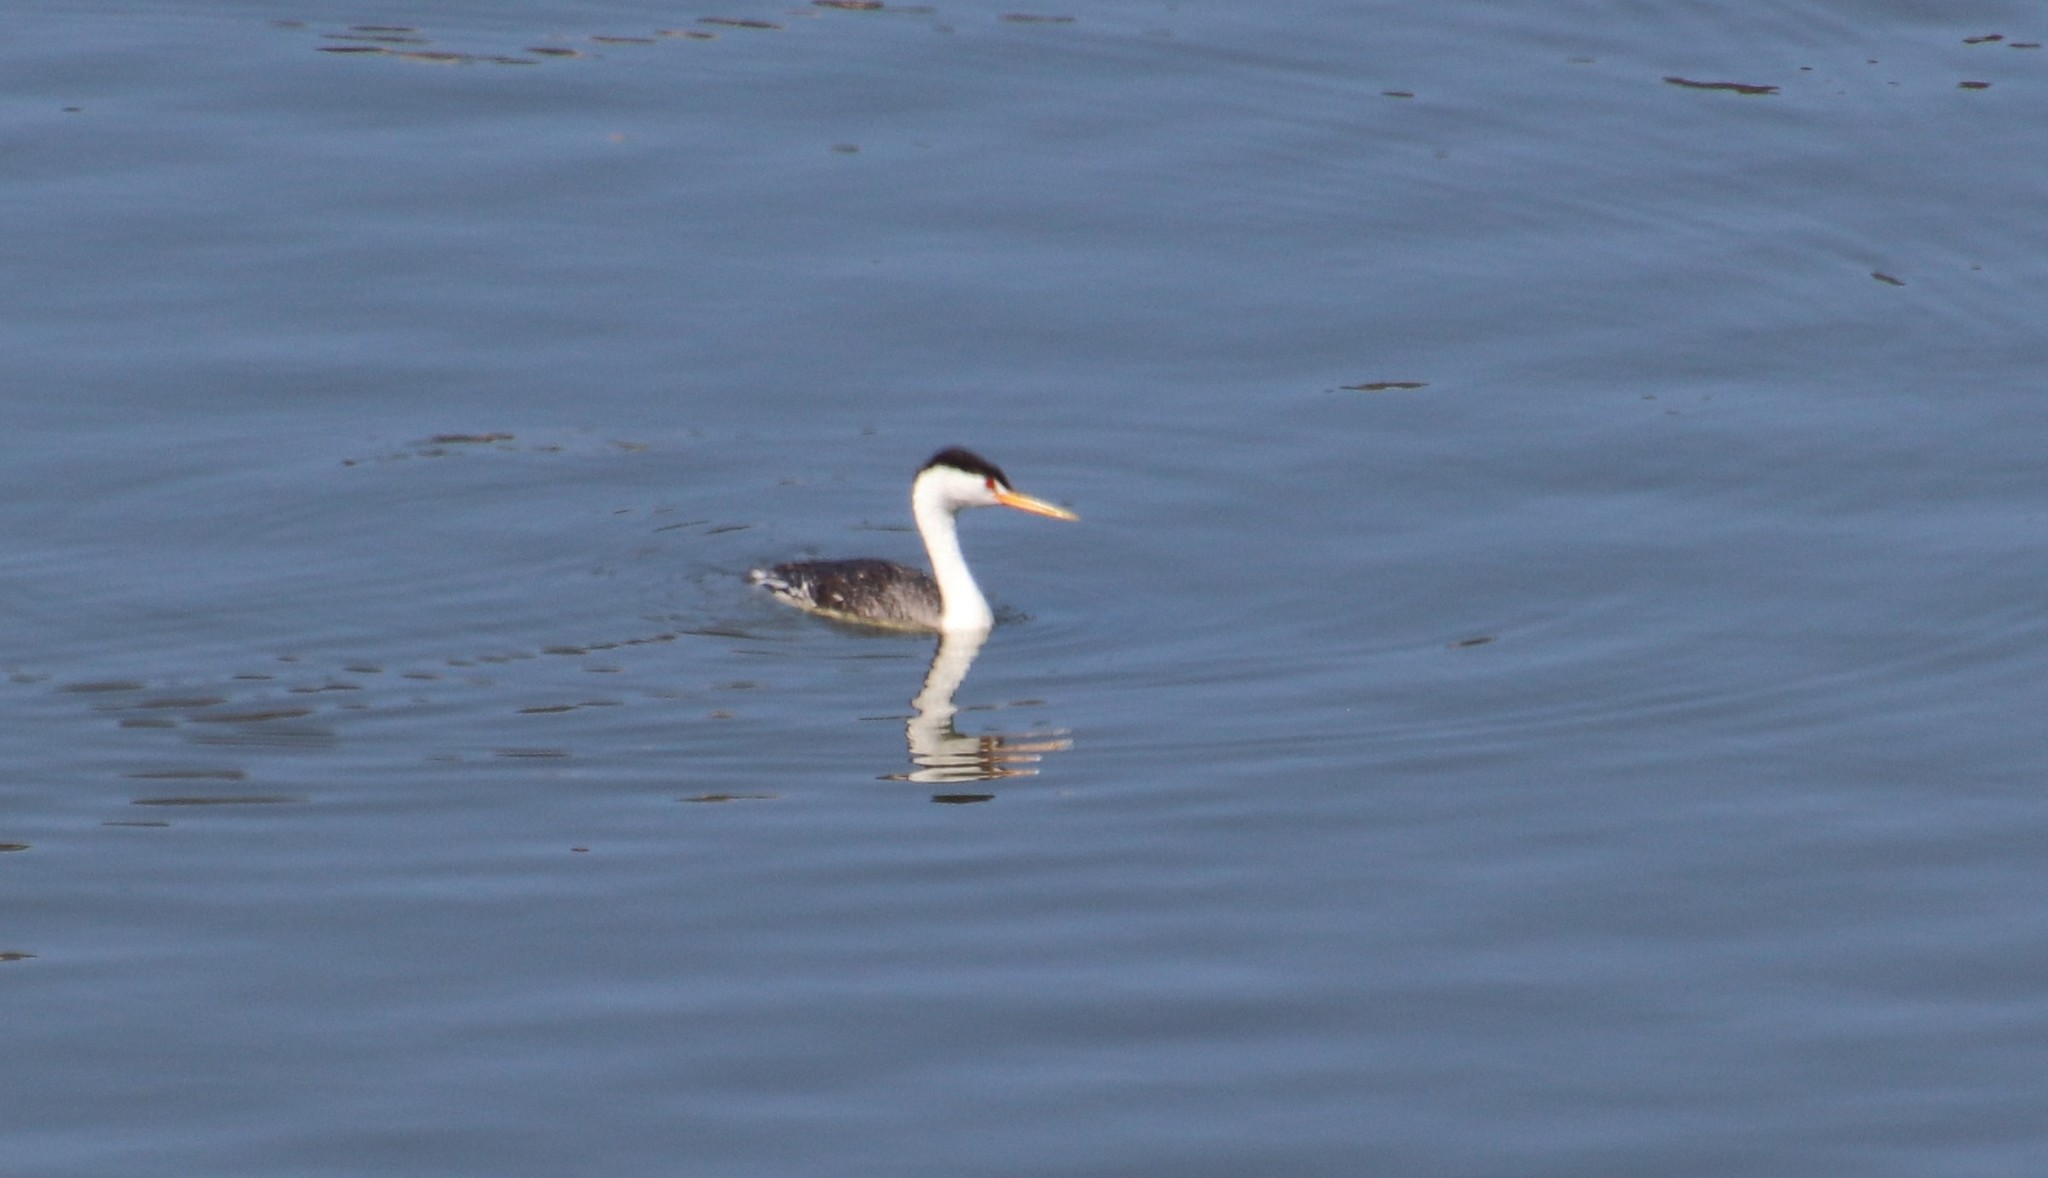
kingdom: Animalia
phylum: Chordata
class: Aves
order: Podicipediformes
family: Podicipedidae
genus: Aechmophorus
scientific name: Aechmophorus clarkii
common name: Clark's grebe
